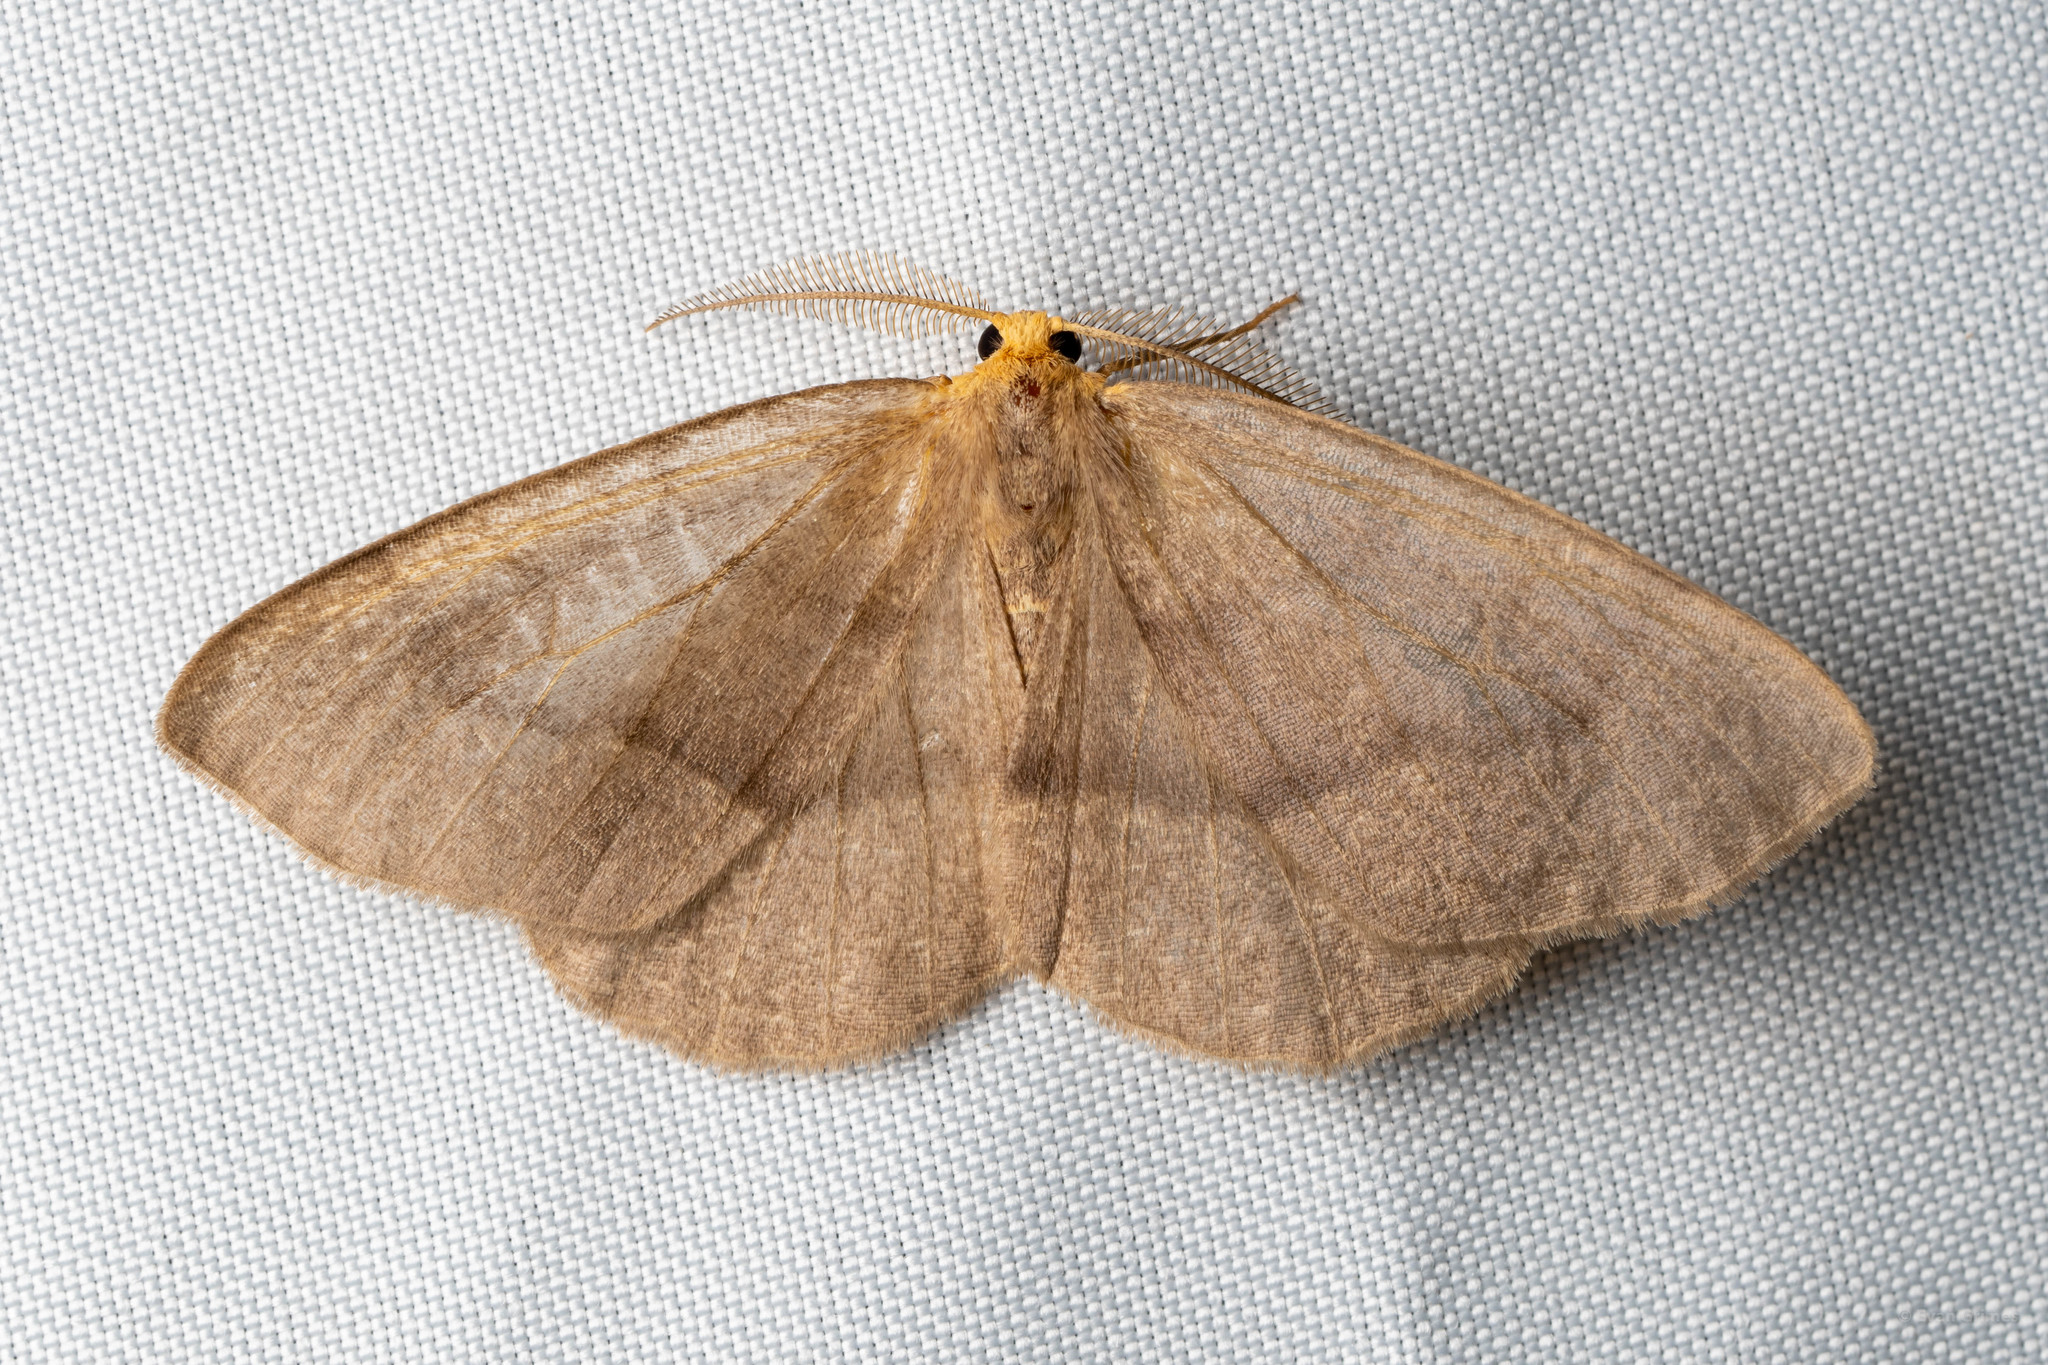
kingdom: Animalia
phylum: Arthropoda
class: Insecta
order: Lepidoptera
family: Geometridae
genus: Lambdina
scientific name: Lambdina pellucidaria
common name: Eastern pinelooper
